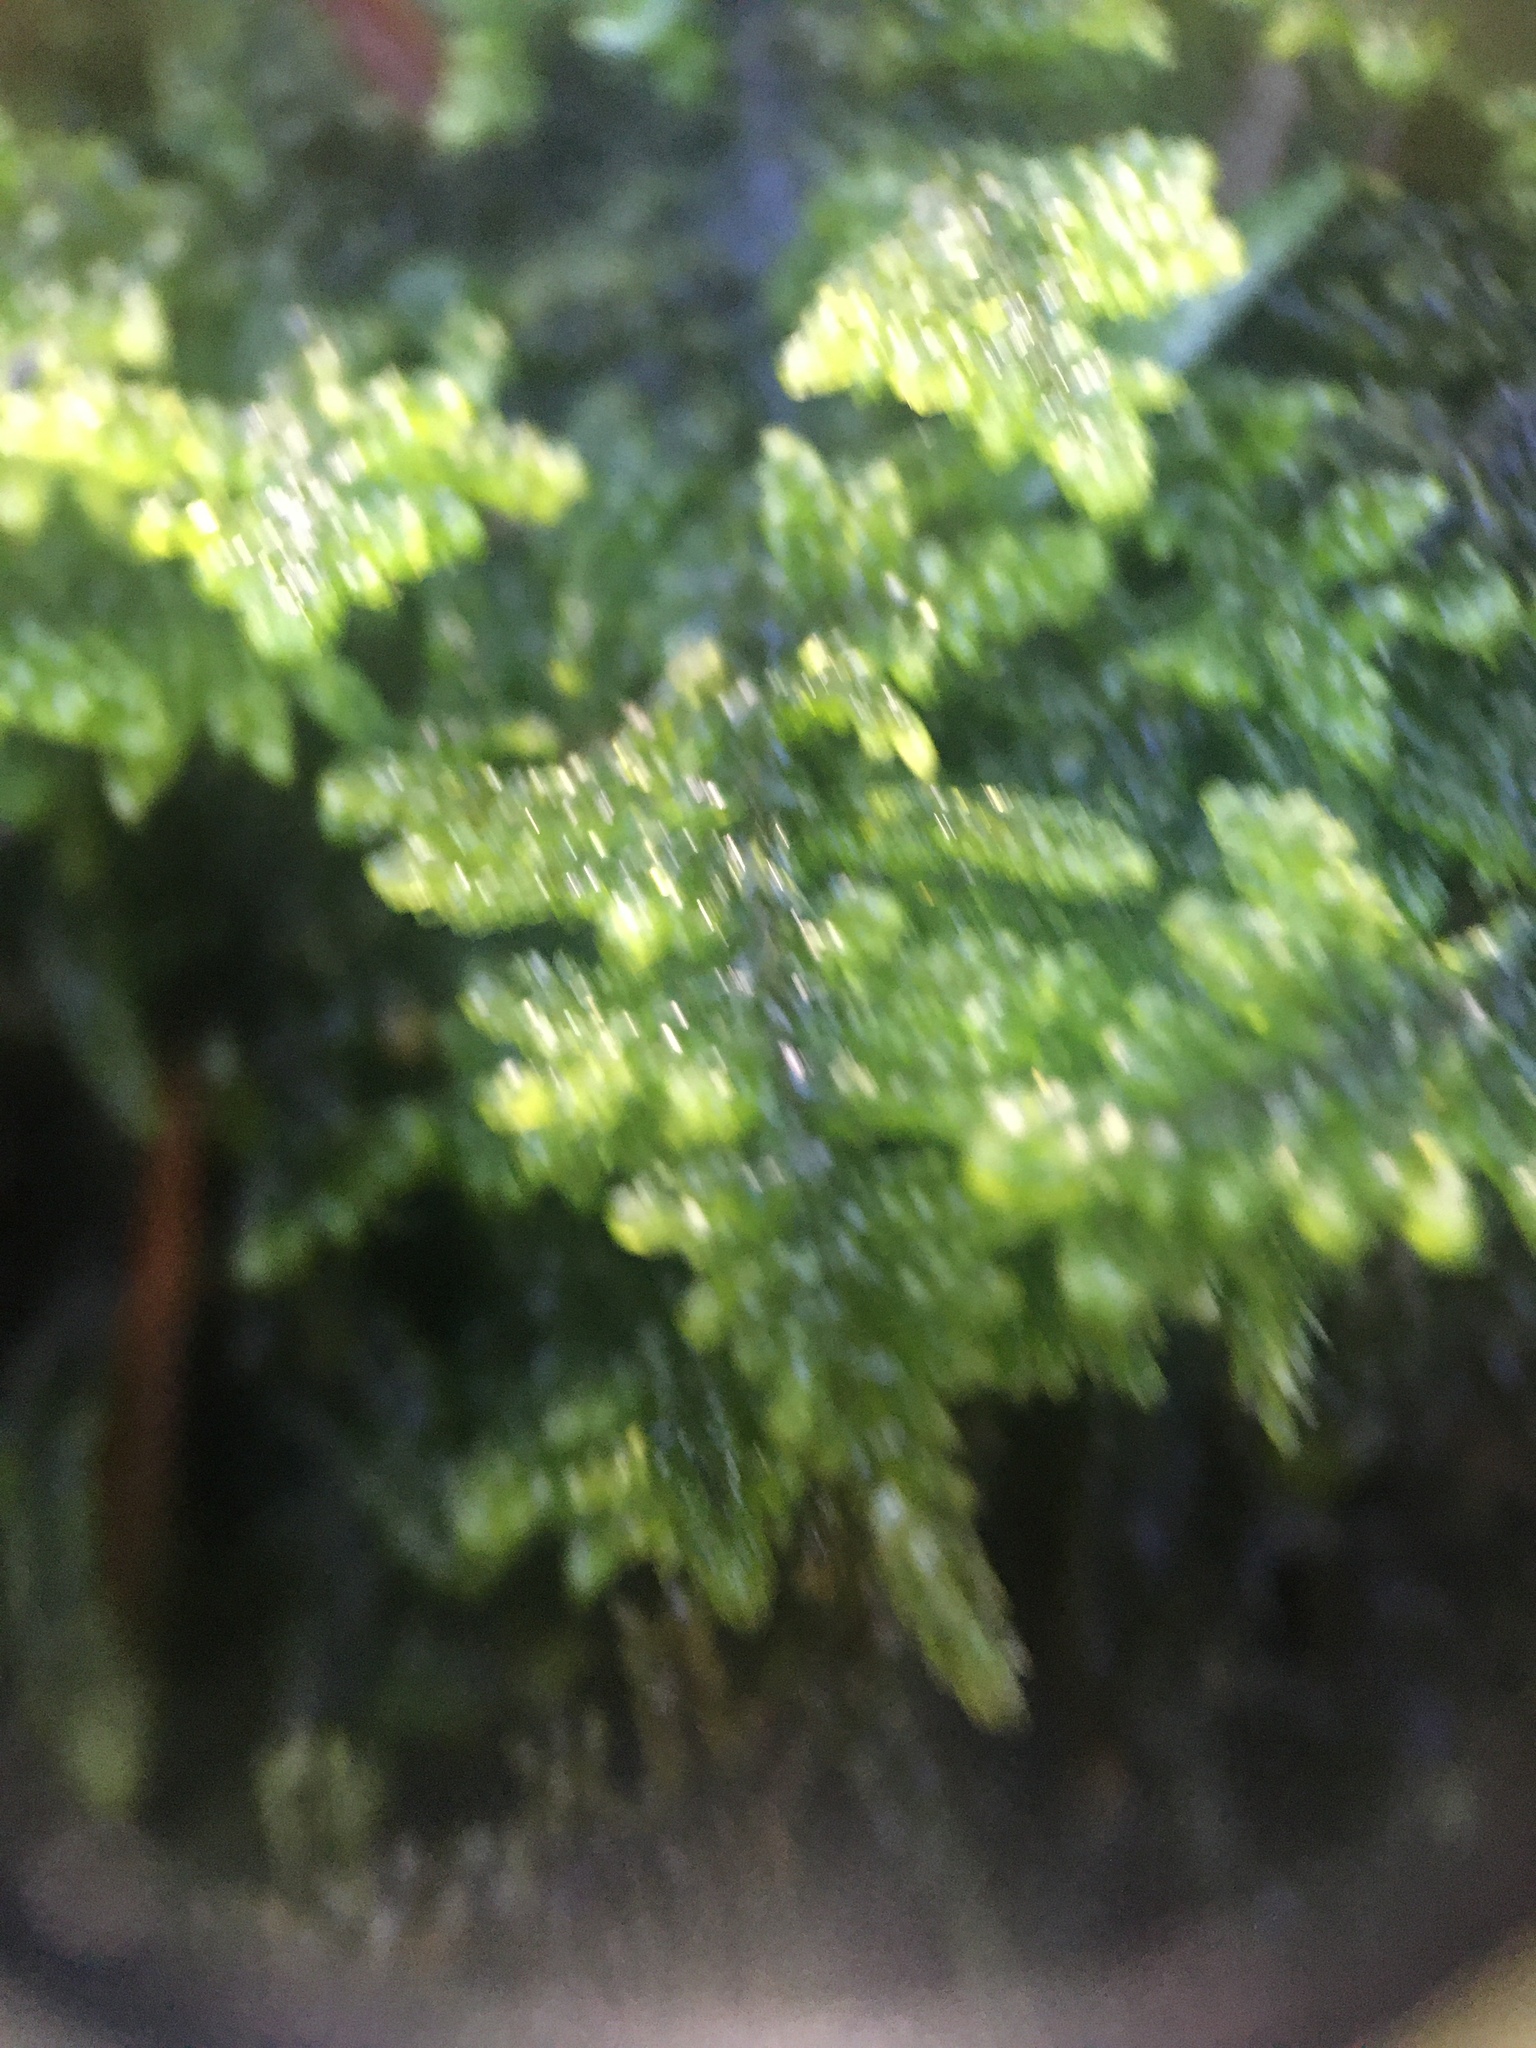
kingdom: Plantae
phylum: Bryophyta
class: Bryopsida
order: Hypnales
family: Callicladiaceae
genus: Callicladium
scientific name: Callicladium imponens
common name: Brocade moss
